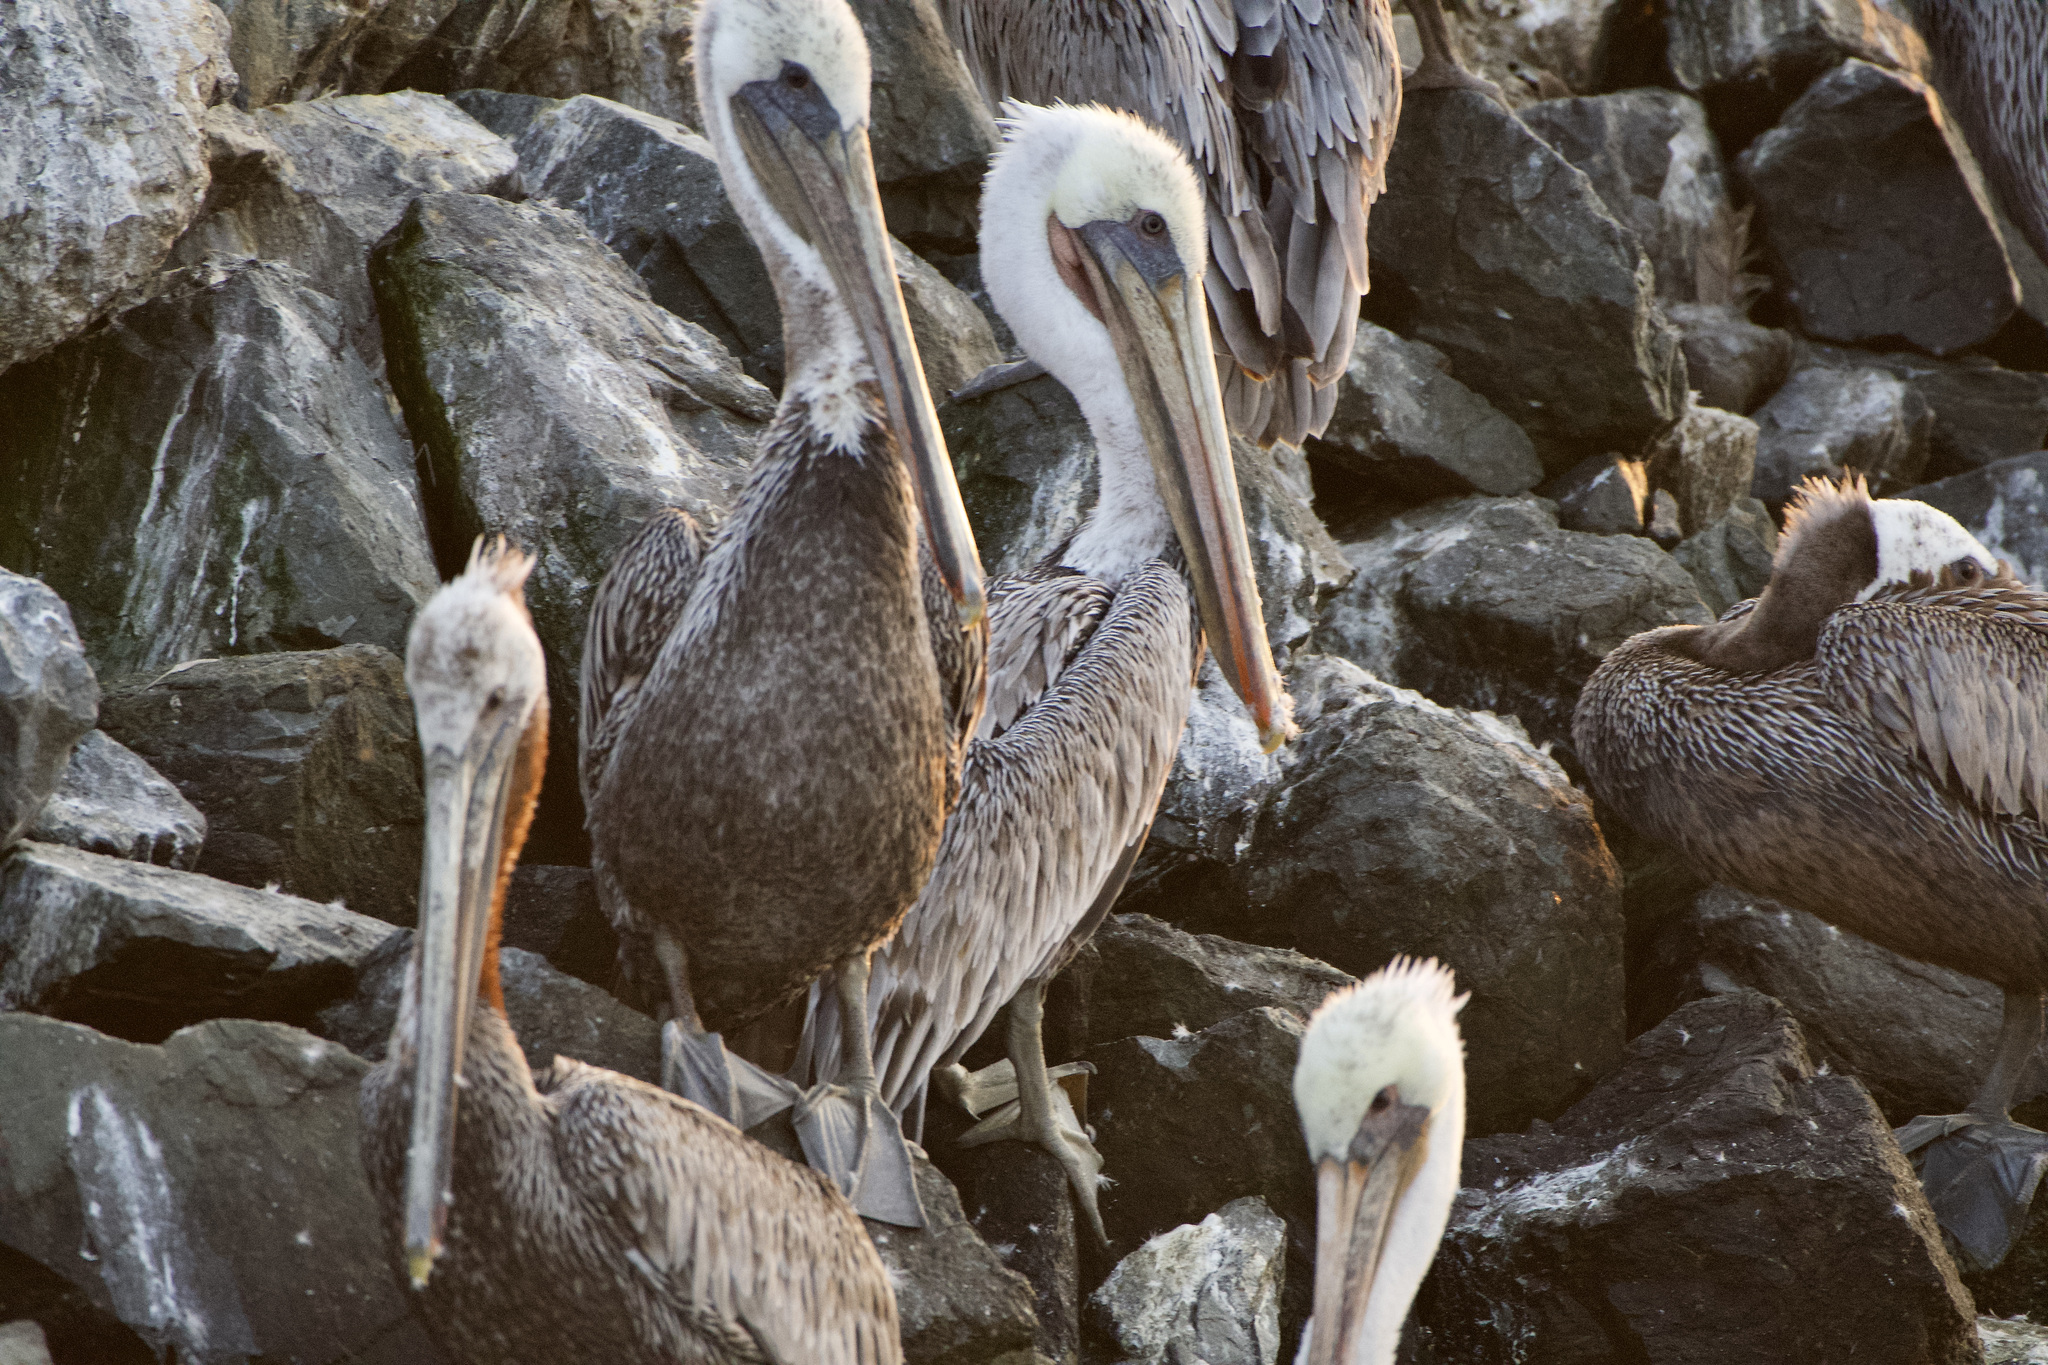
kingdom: Animalia
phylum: Chordata
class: Aves
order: Pelecaniformes
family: Pelecanidae
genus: Pelecanus
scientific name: Pelecanus occidentalis
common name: Brown pelican
